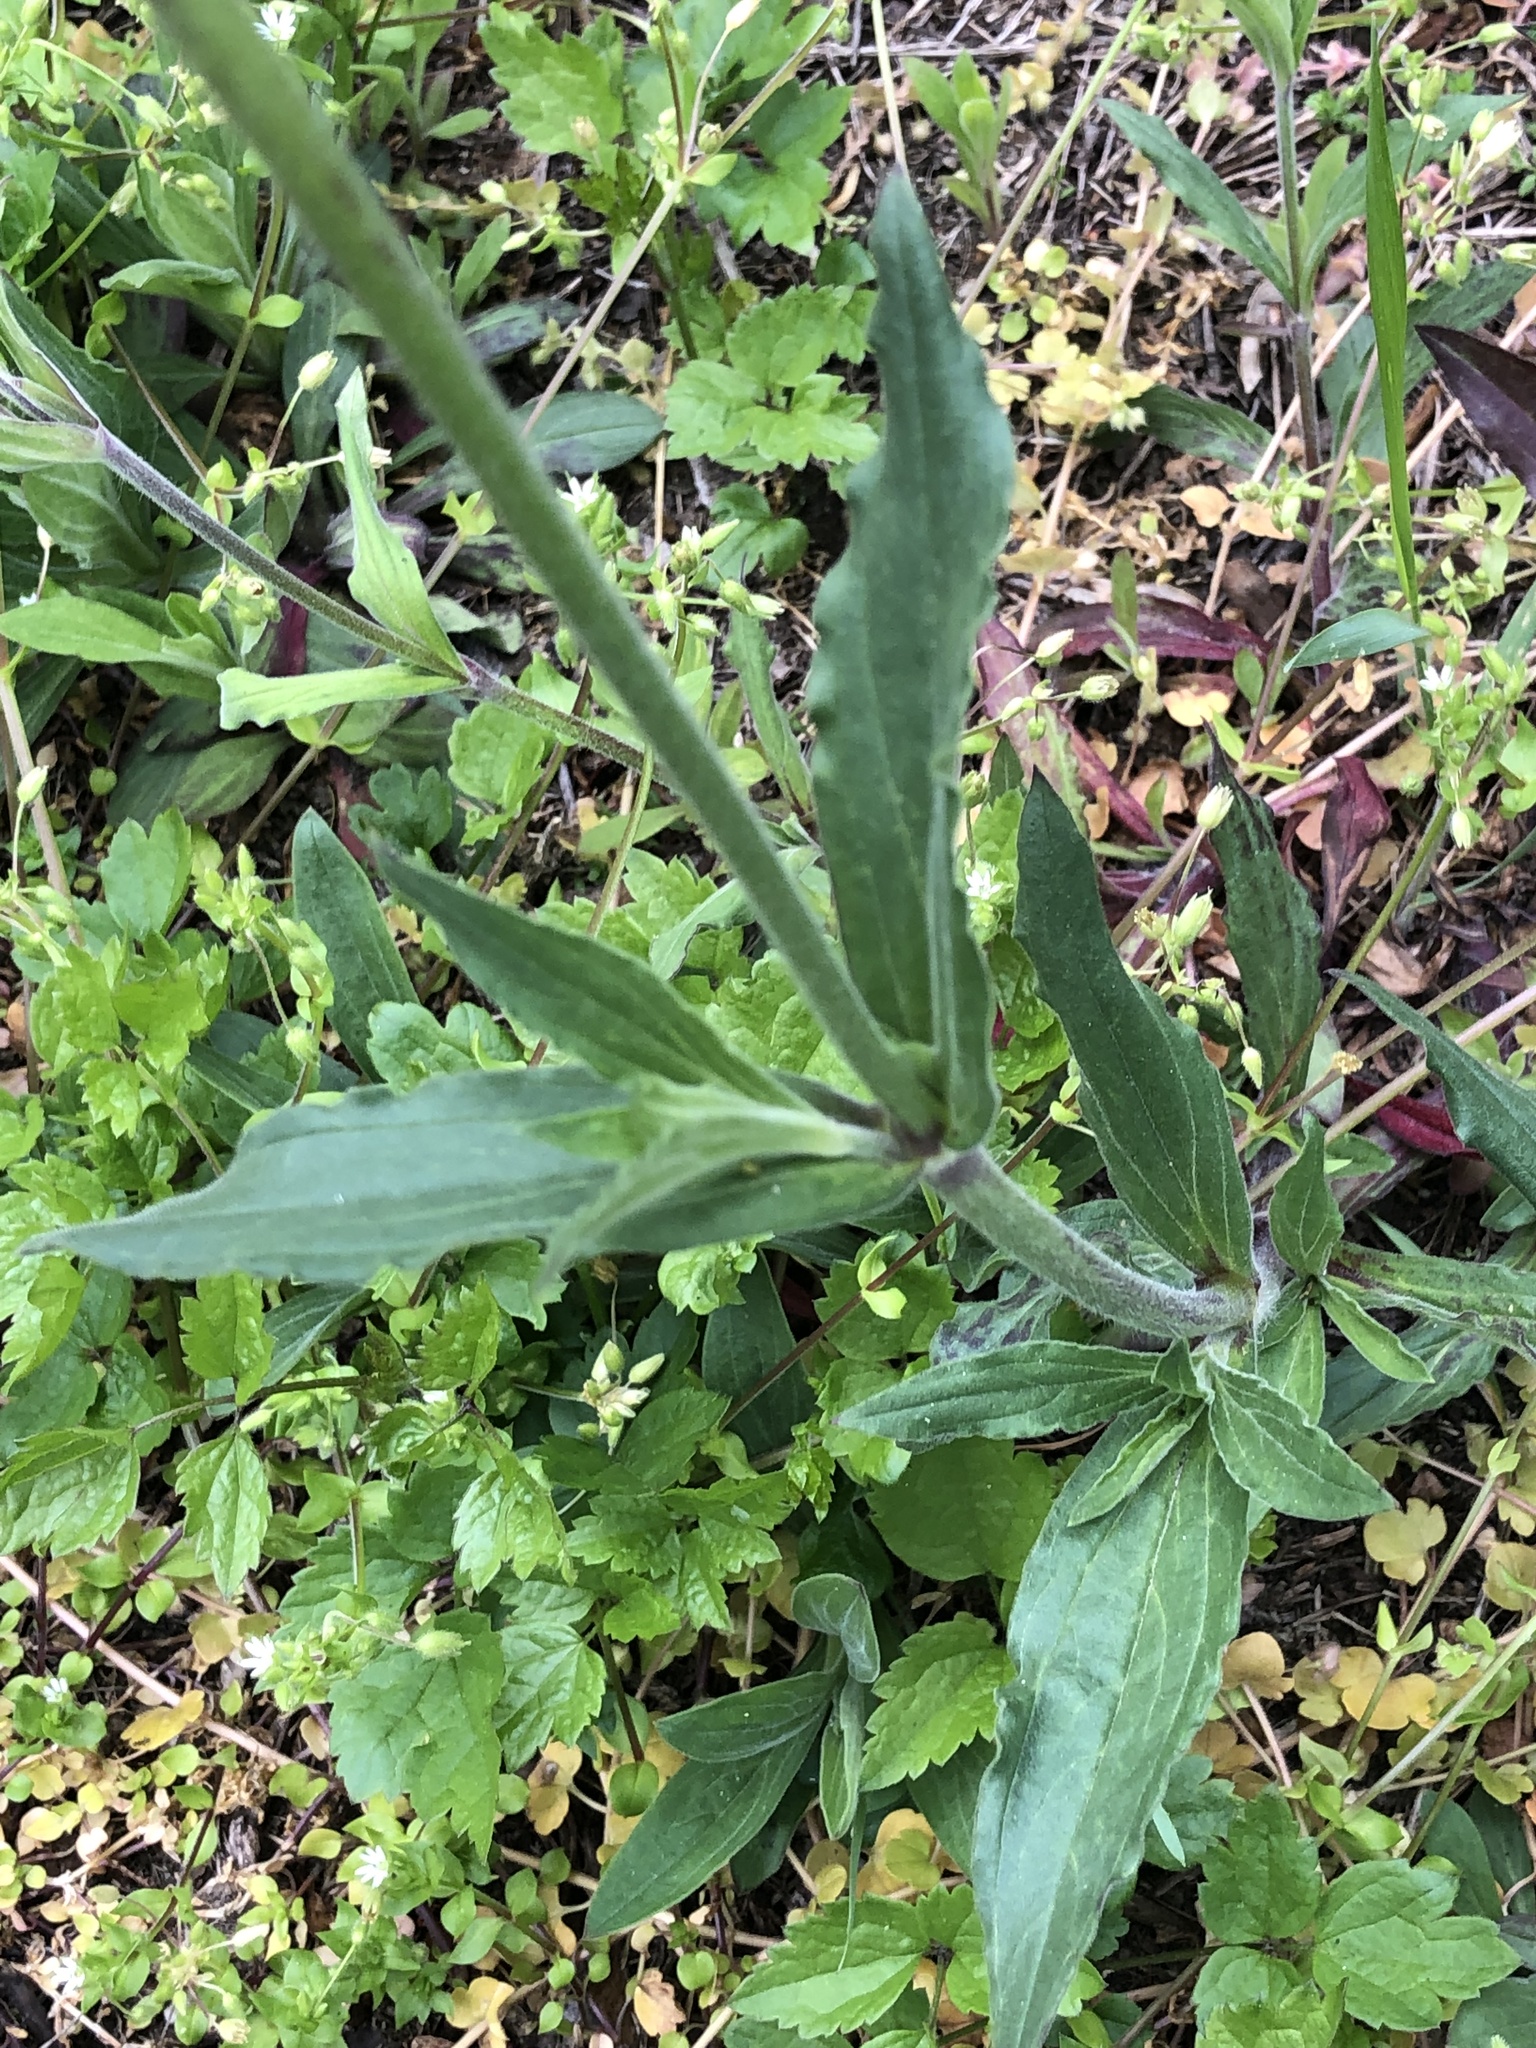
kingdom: Plantae
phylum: Tracheophyta
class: Magnoliopsida
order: Caryophyllales
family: Caryophyllaceae
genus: Silene
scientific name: Silene latifolia
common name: White campion
